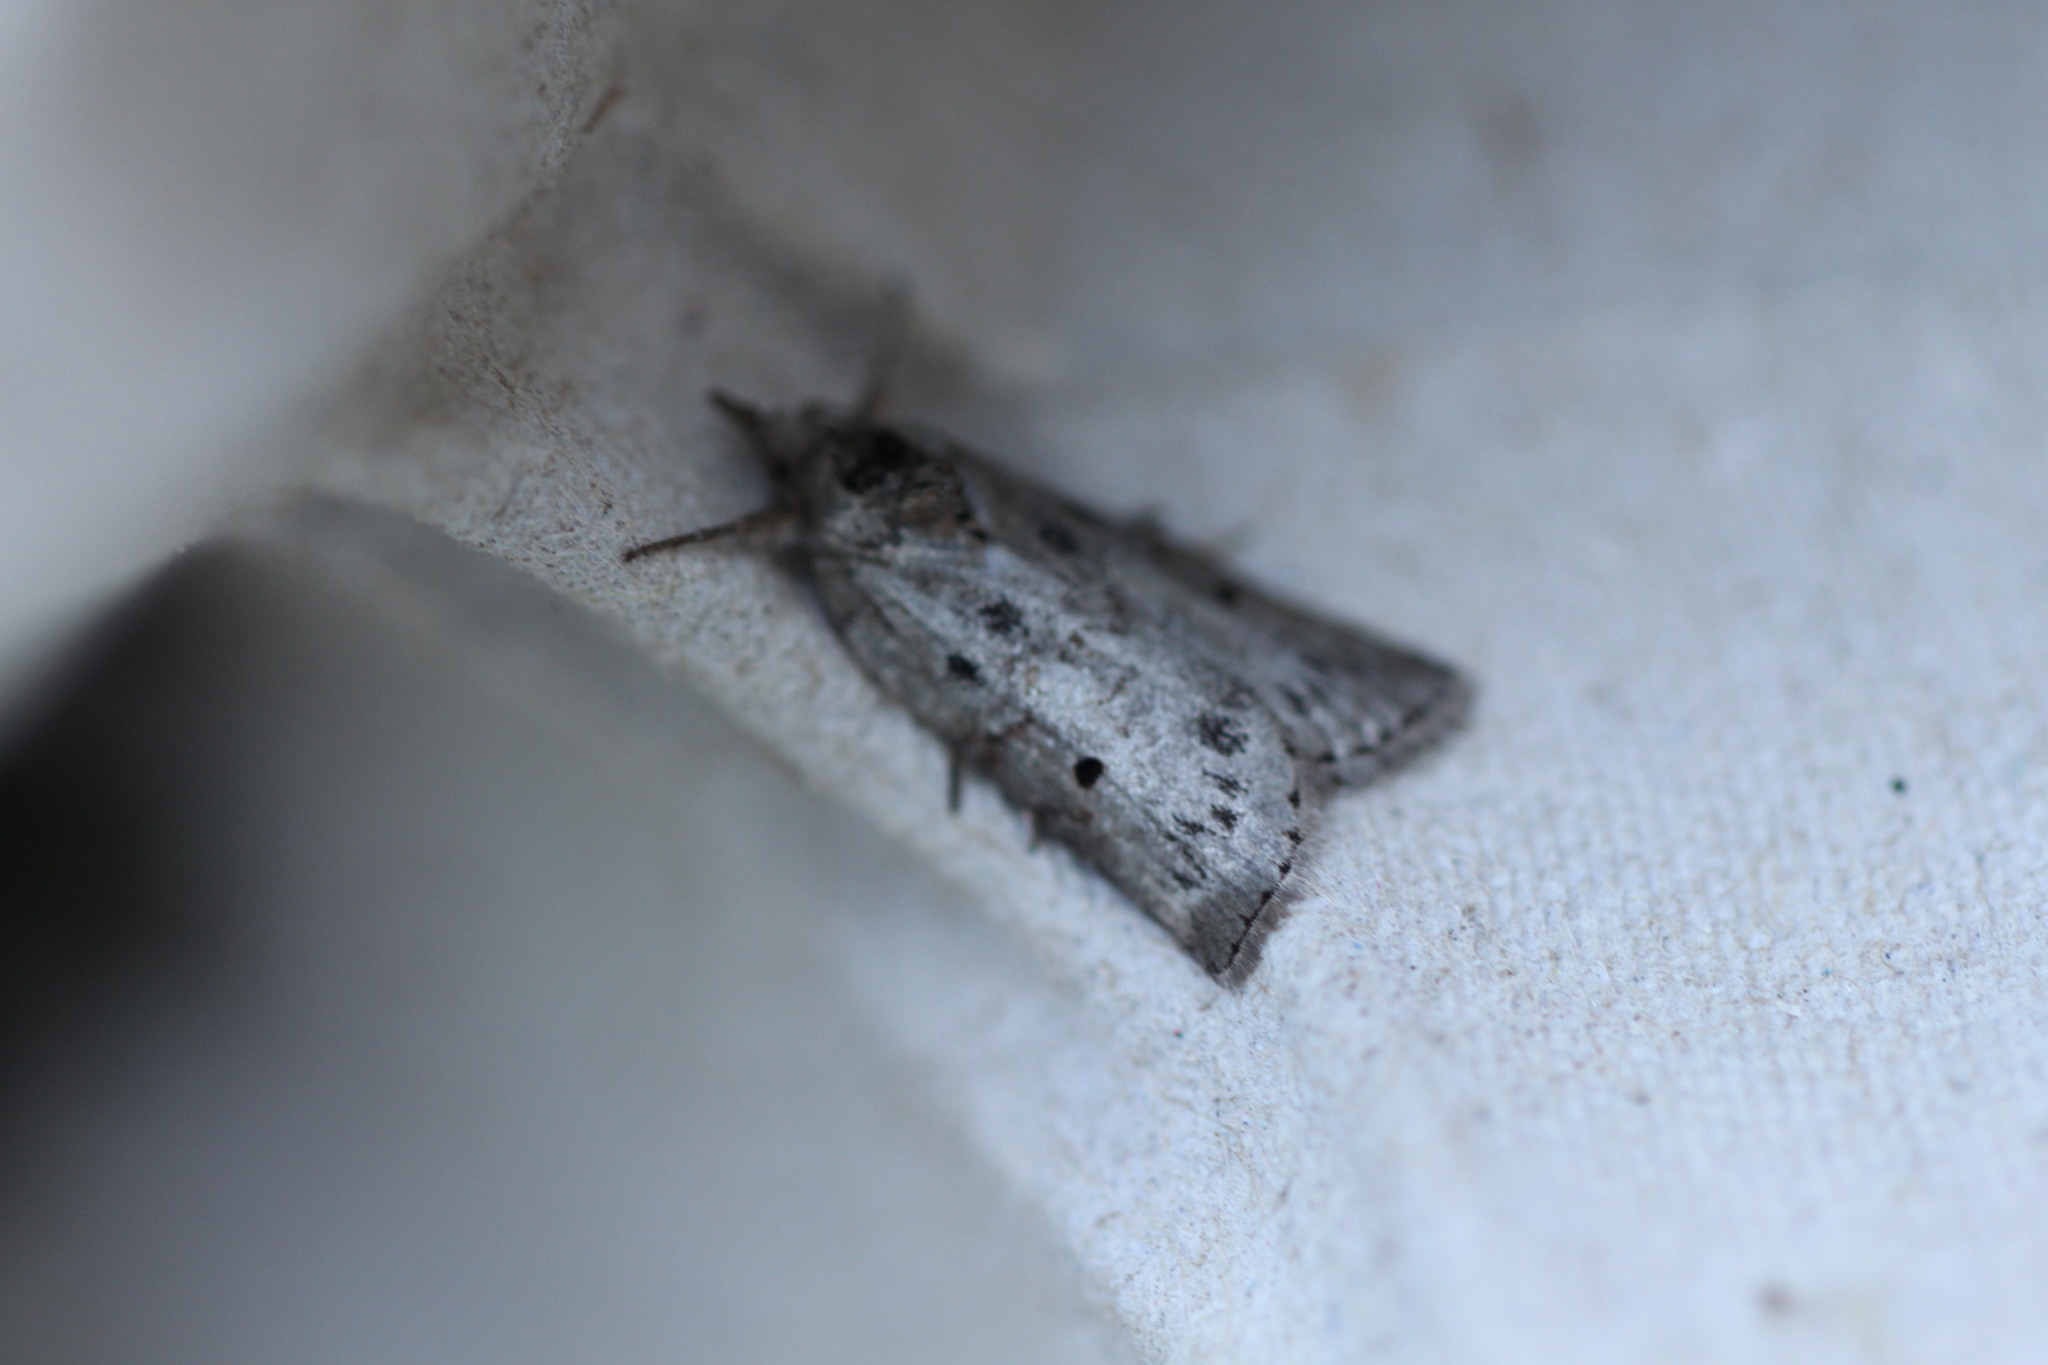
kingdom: Animalia
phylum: Arthropoda
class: Insecta
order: Lepidoptera
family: Nolidae
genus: Nycteola
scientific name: Nycteola revayana
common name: Oak nycteoline
